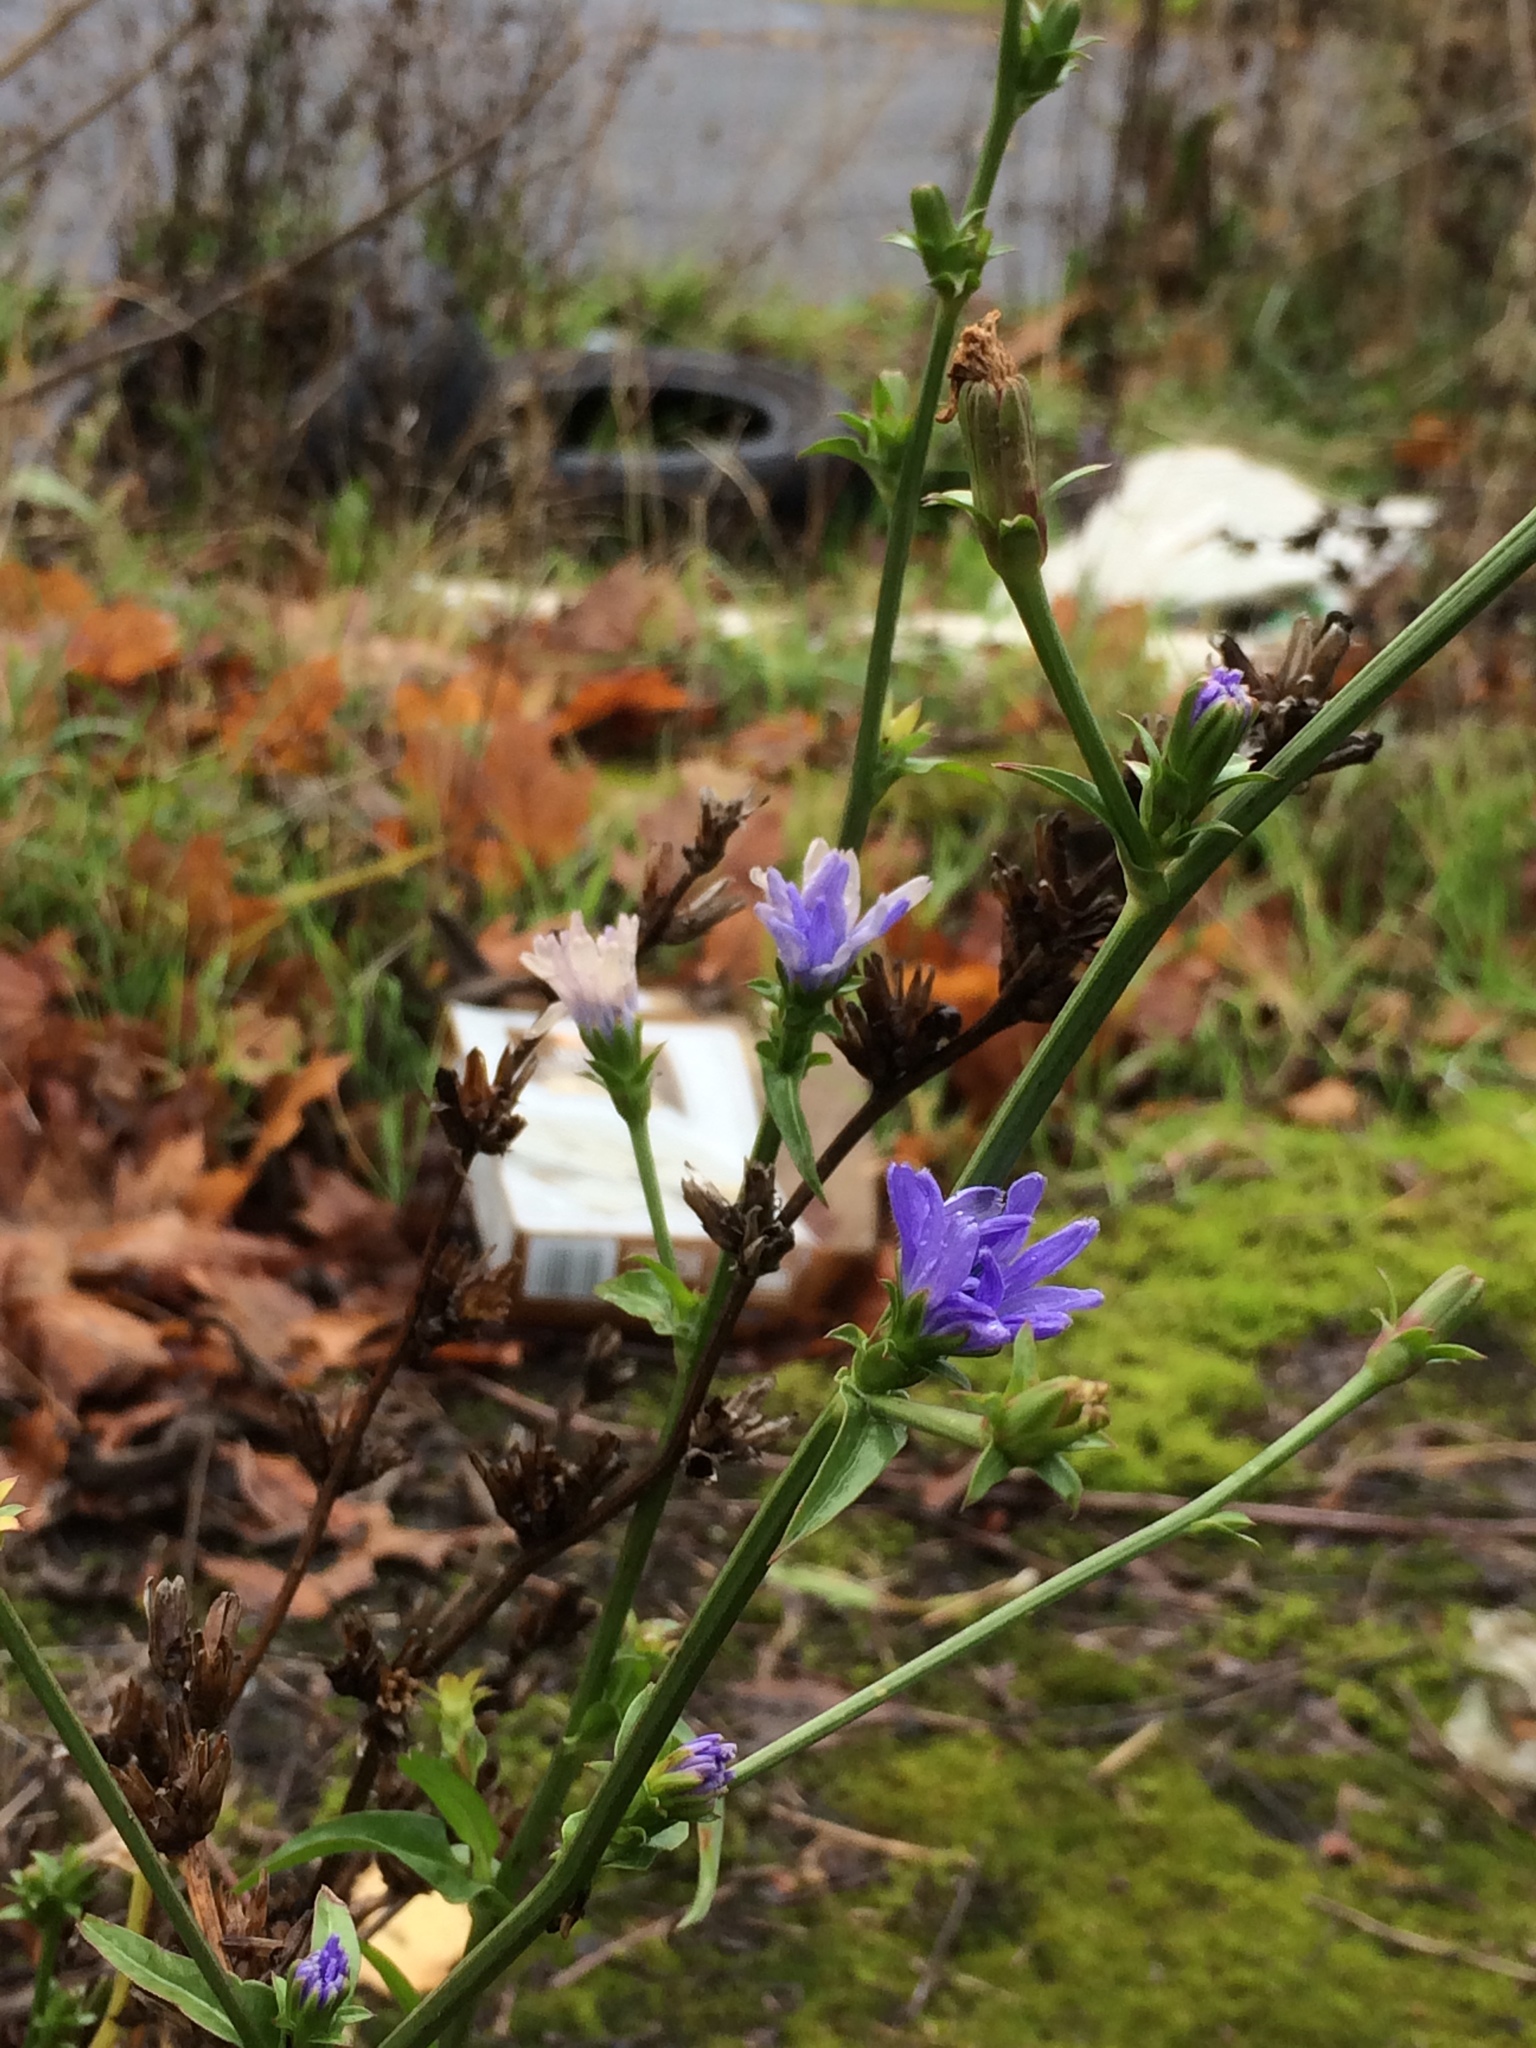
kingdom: Plantae
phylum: Tracheophyta
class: Magnoliopsida
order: Asterales
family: Asteraceae
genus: Cichorium
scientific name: Cichorium intybus
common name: Chicory
